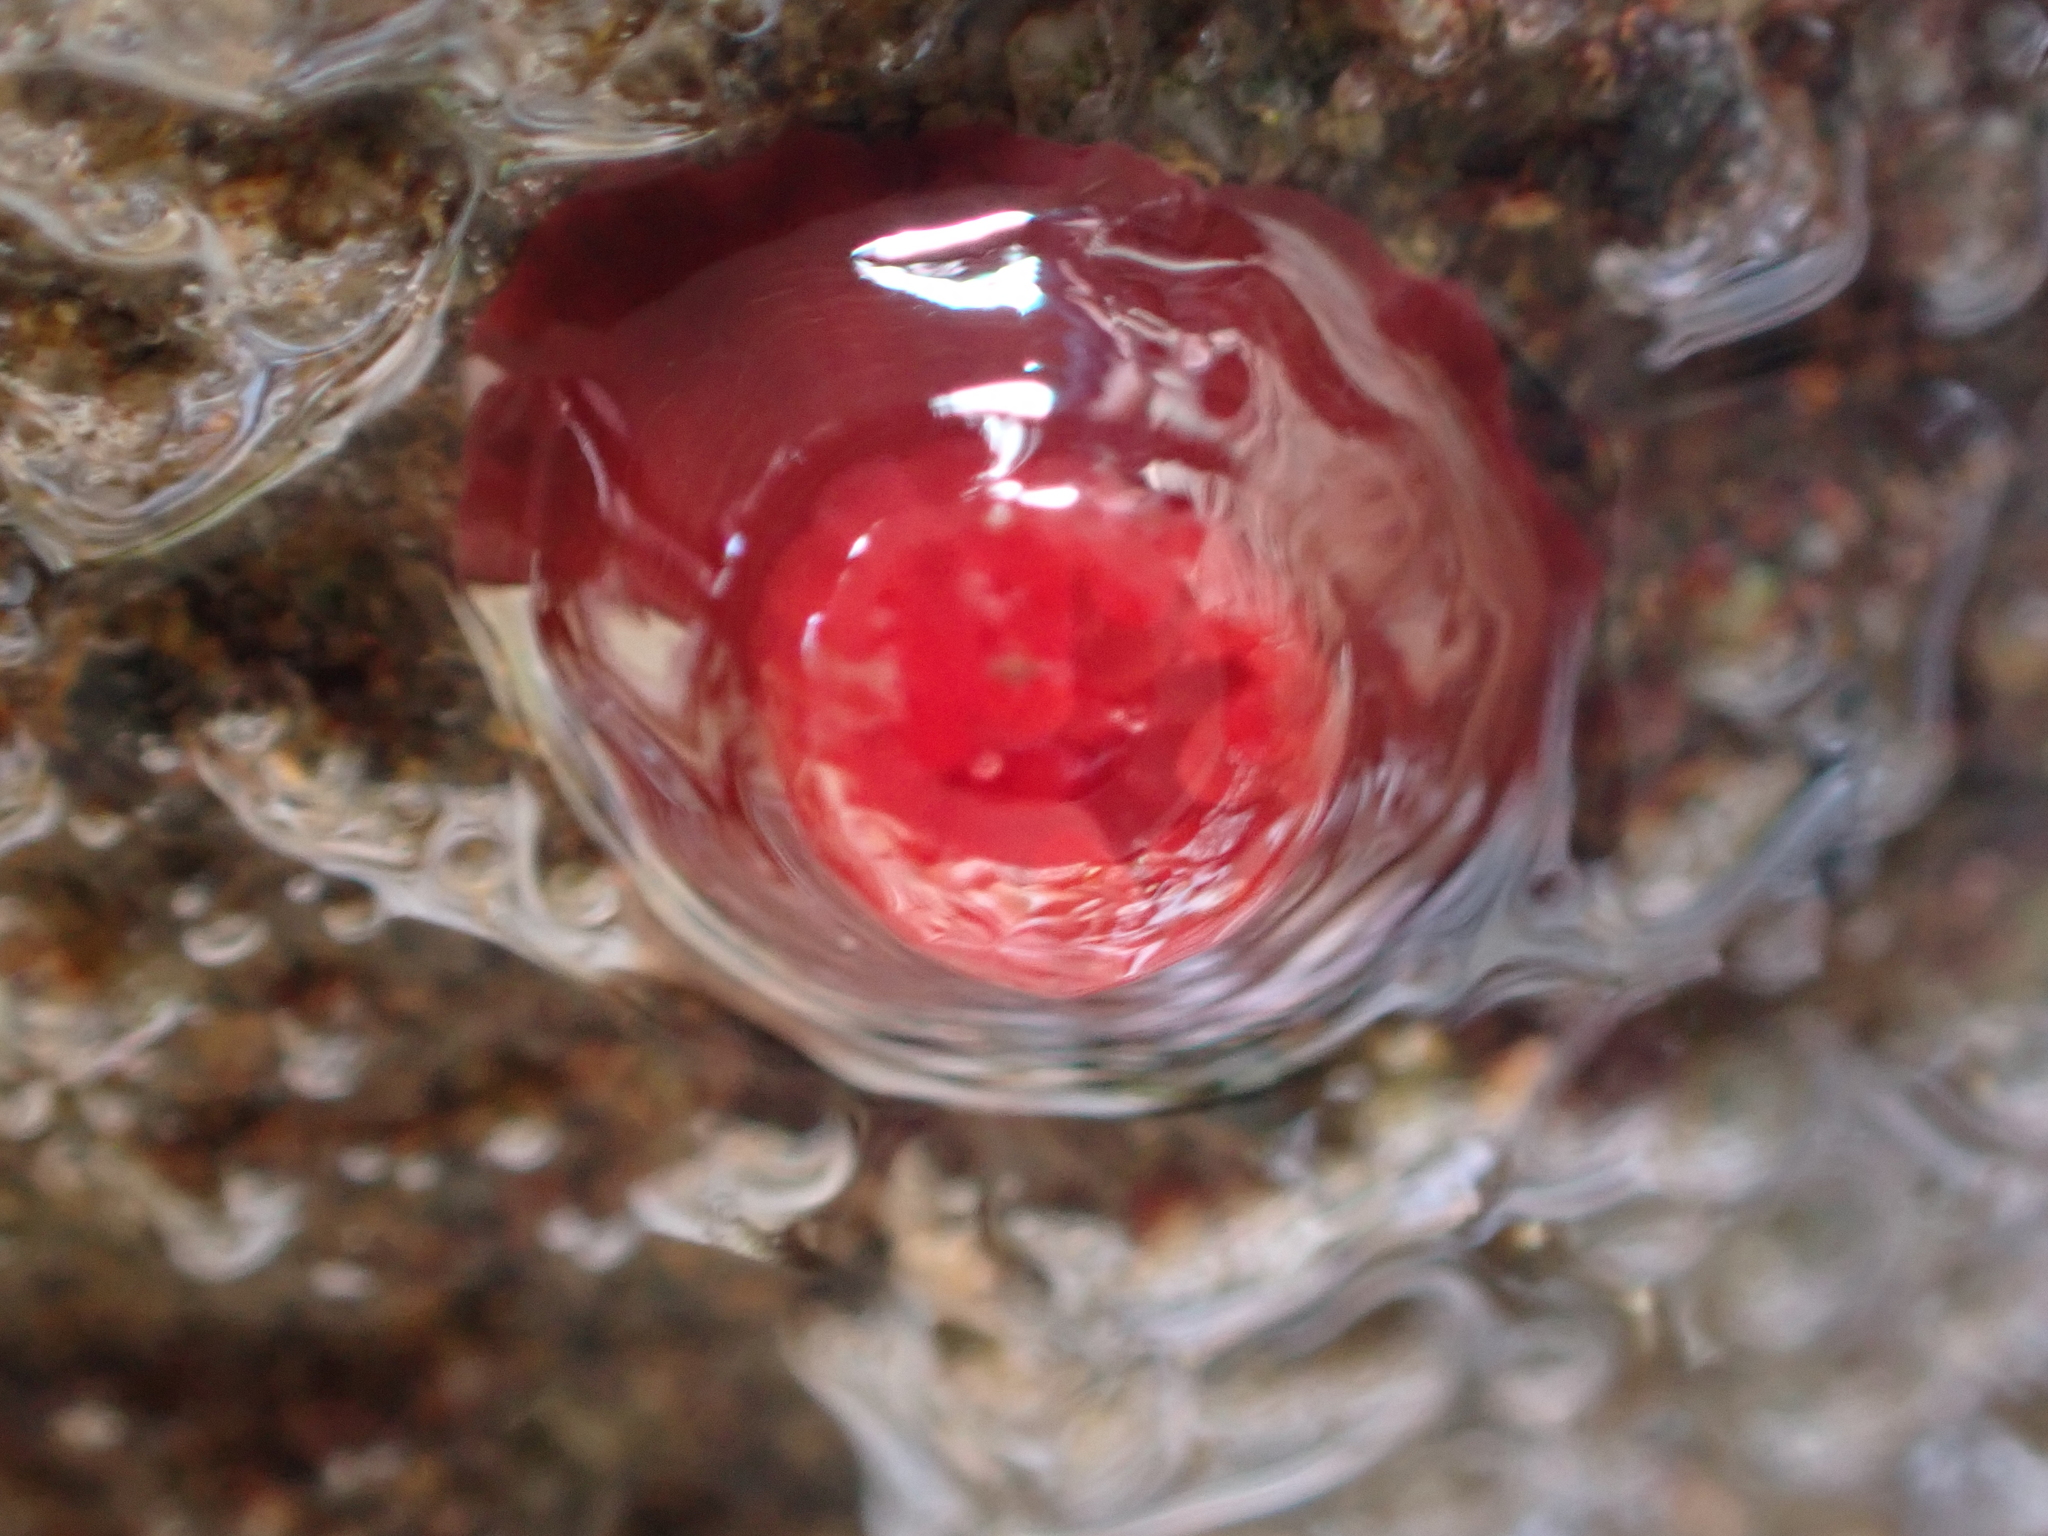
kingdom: Animalia
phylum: Cnidaria
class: Anthozoa
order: Actiniaria
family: Actiniidae
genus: Actinia
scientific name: Actinia tenebrosa
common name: Waratah anemone
